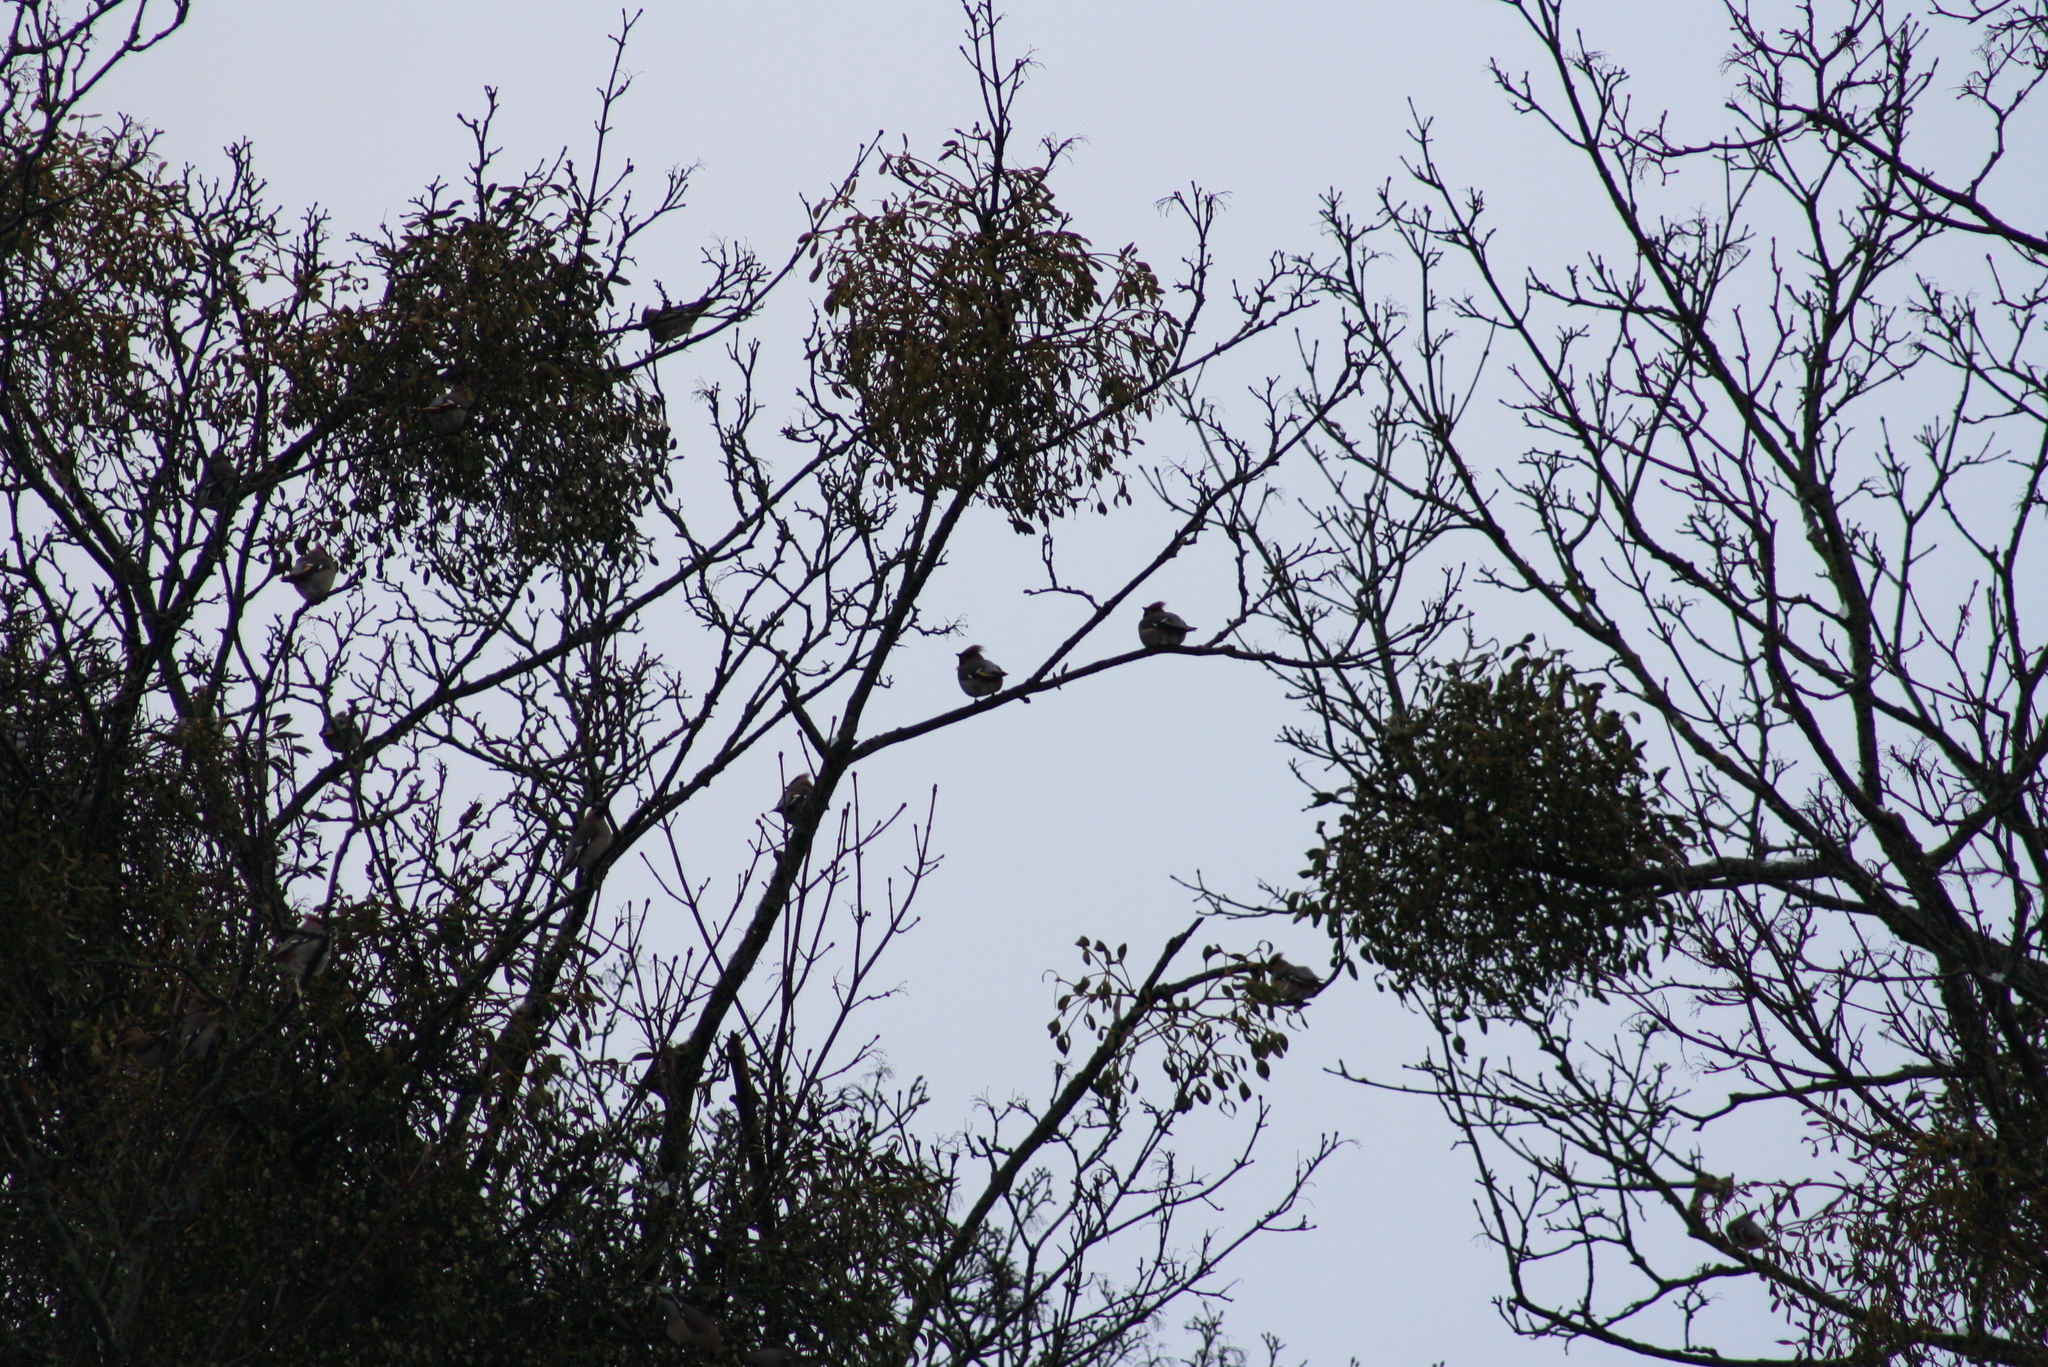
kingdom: Animalia
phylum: Chordata
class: Aves
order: Passeriformes
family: Bombycillidae
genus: Bombycilla
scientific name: Bombycilla garrulus
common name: Bohemian waxwing
